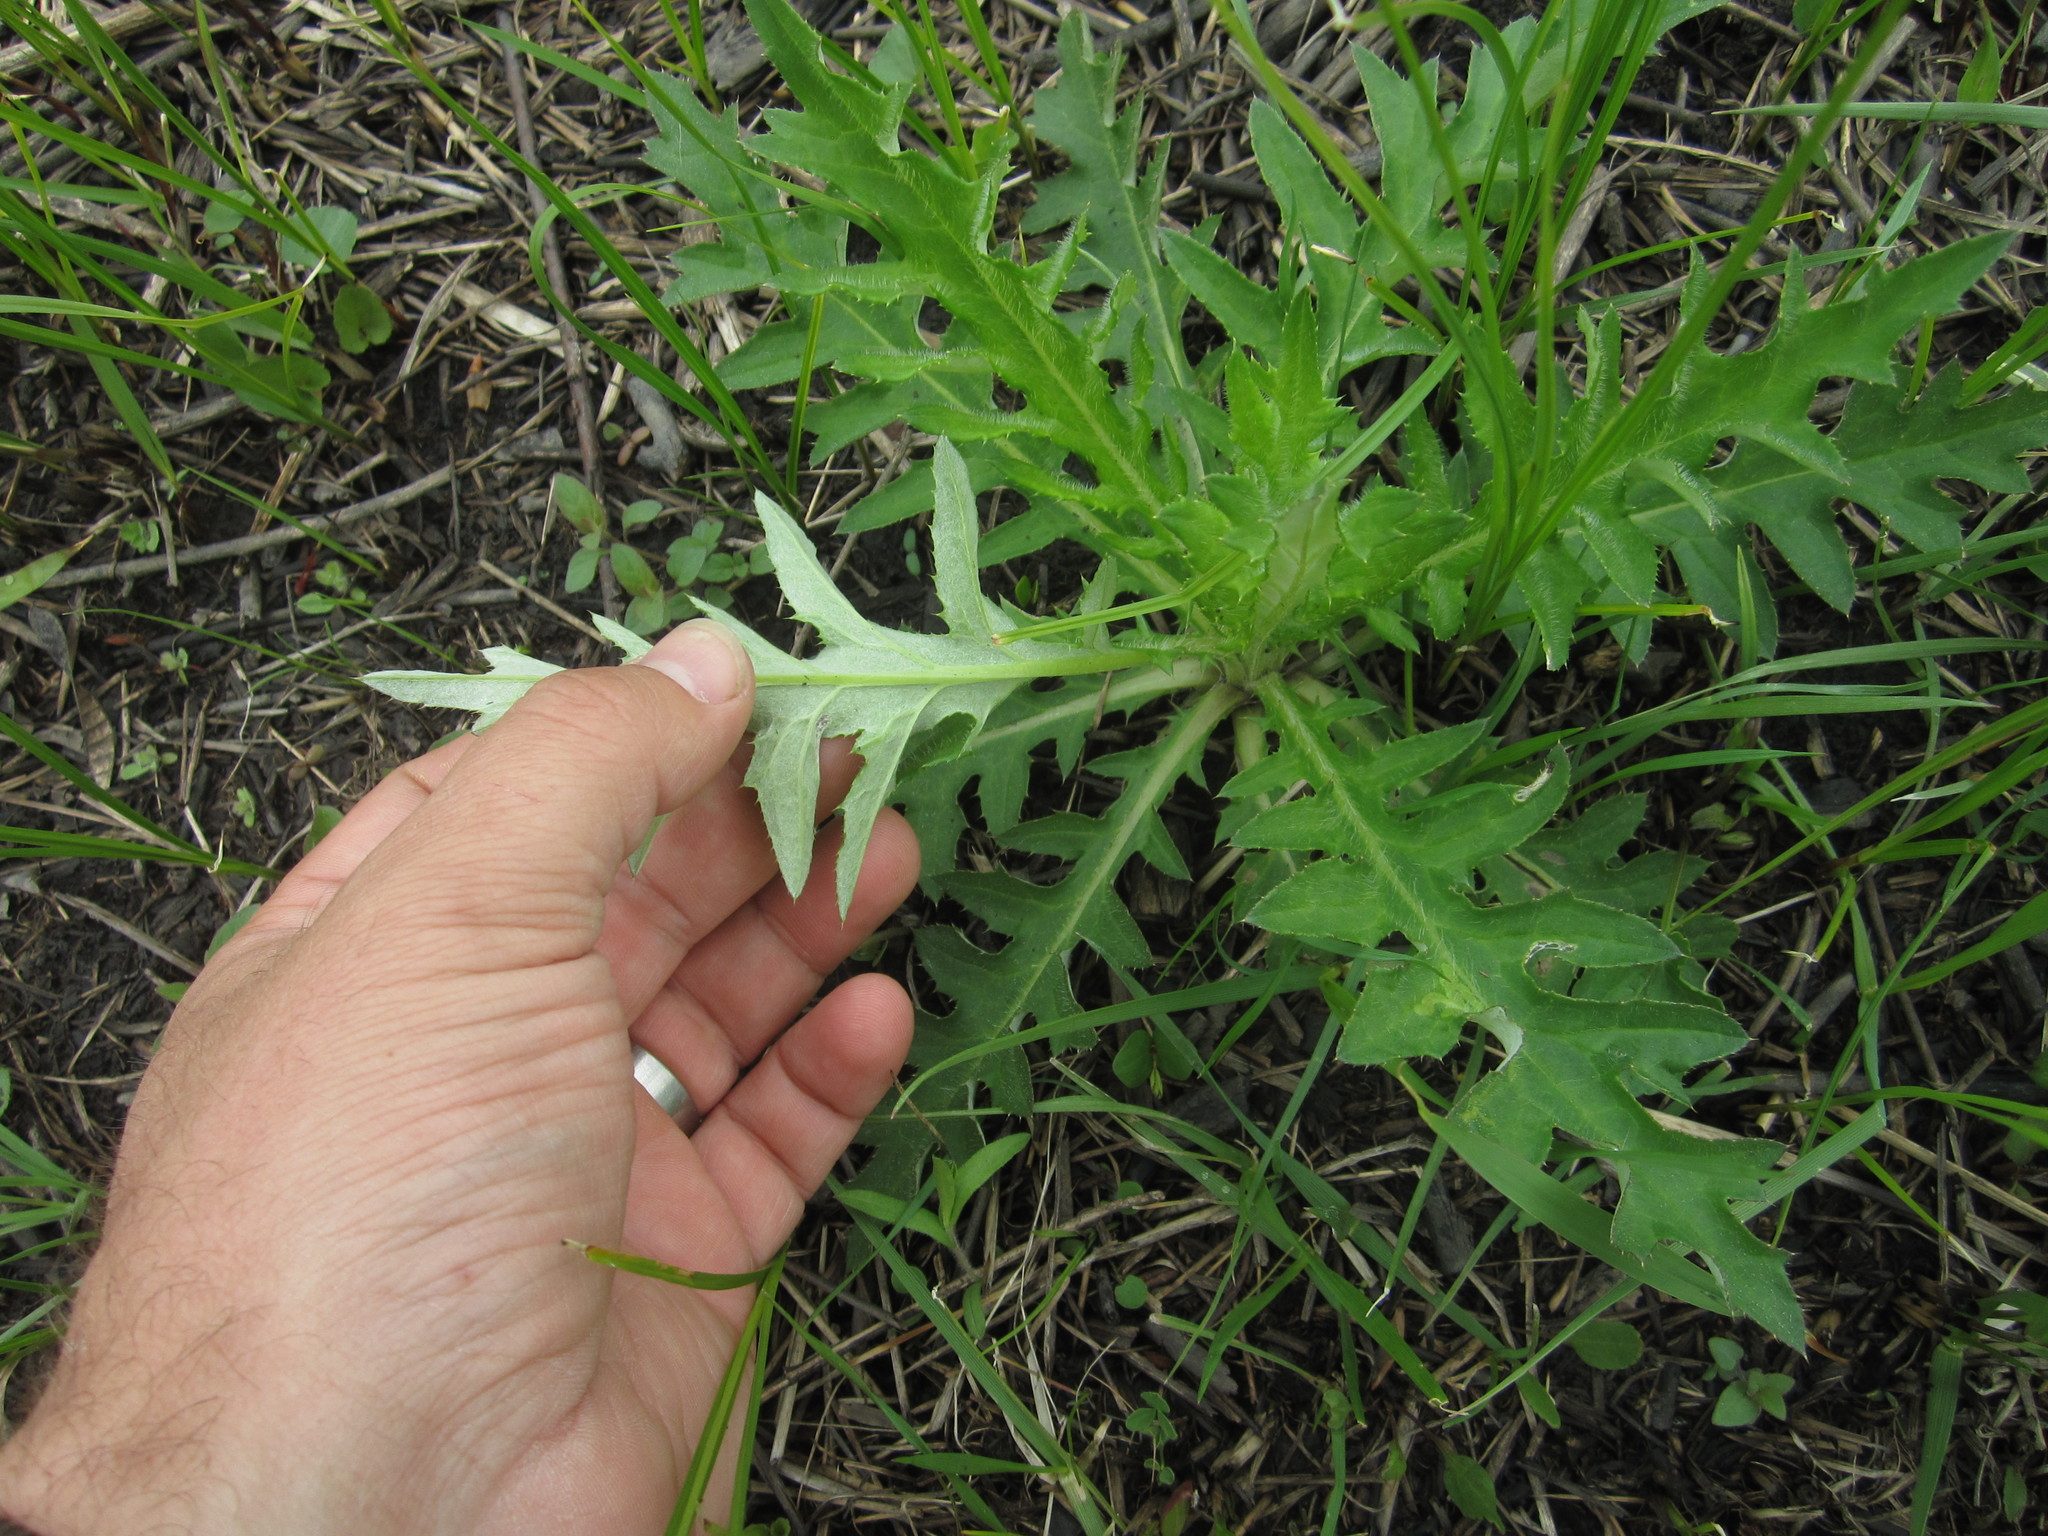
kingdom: Plantae
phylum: Tracheophyta
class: Magnoliopsida
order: Asterales
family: Asteraceae
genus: Cirsium
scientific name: Cirsium discolor
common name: Field thistle
